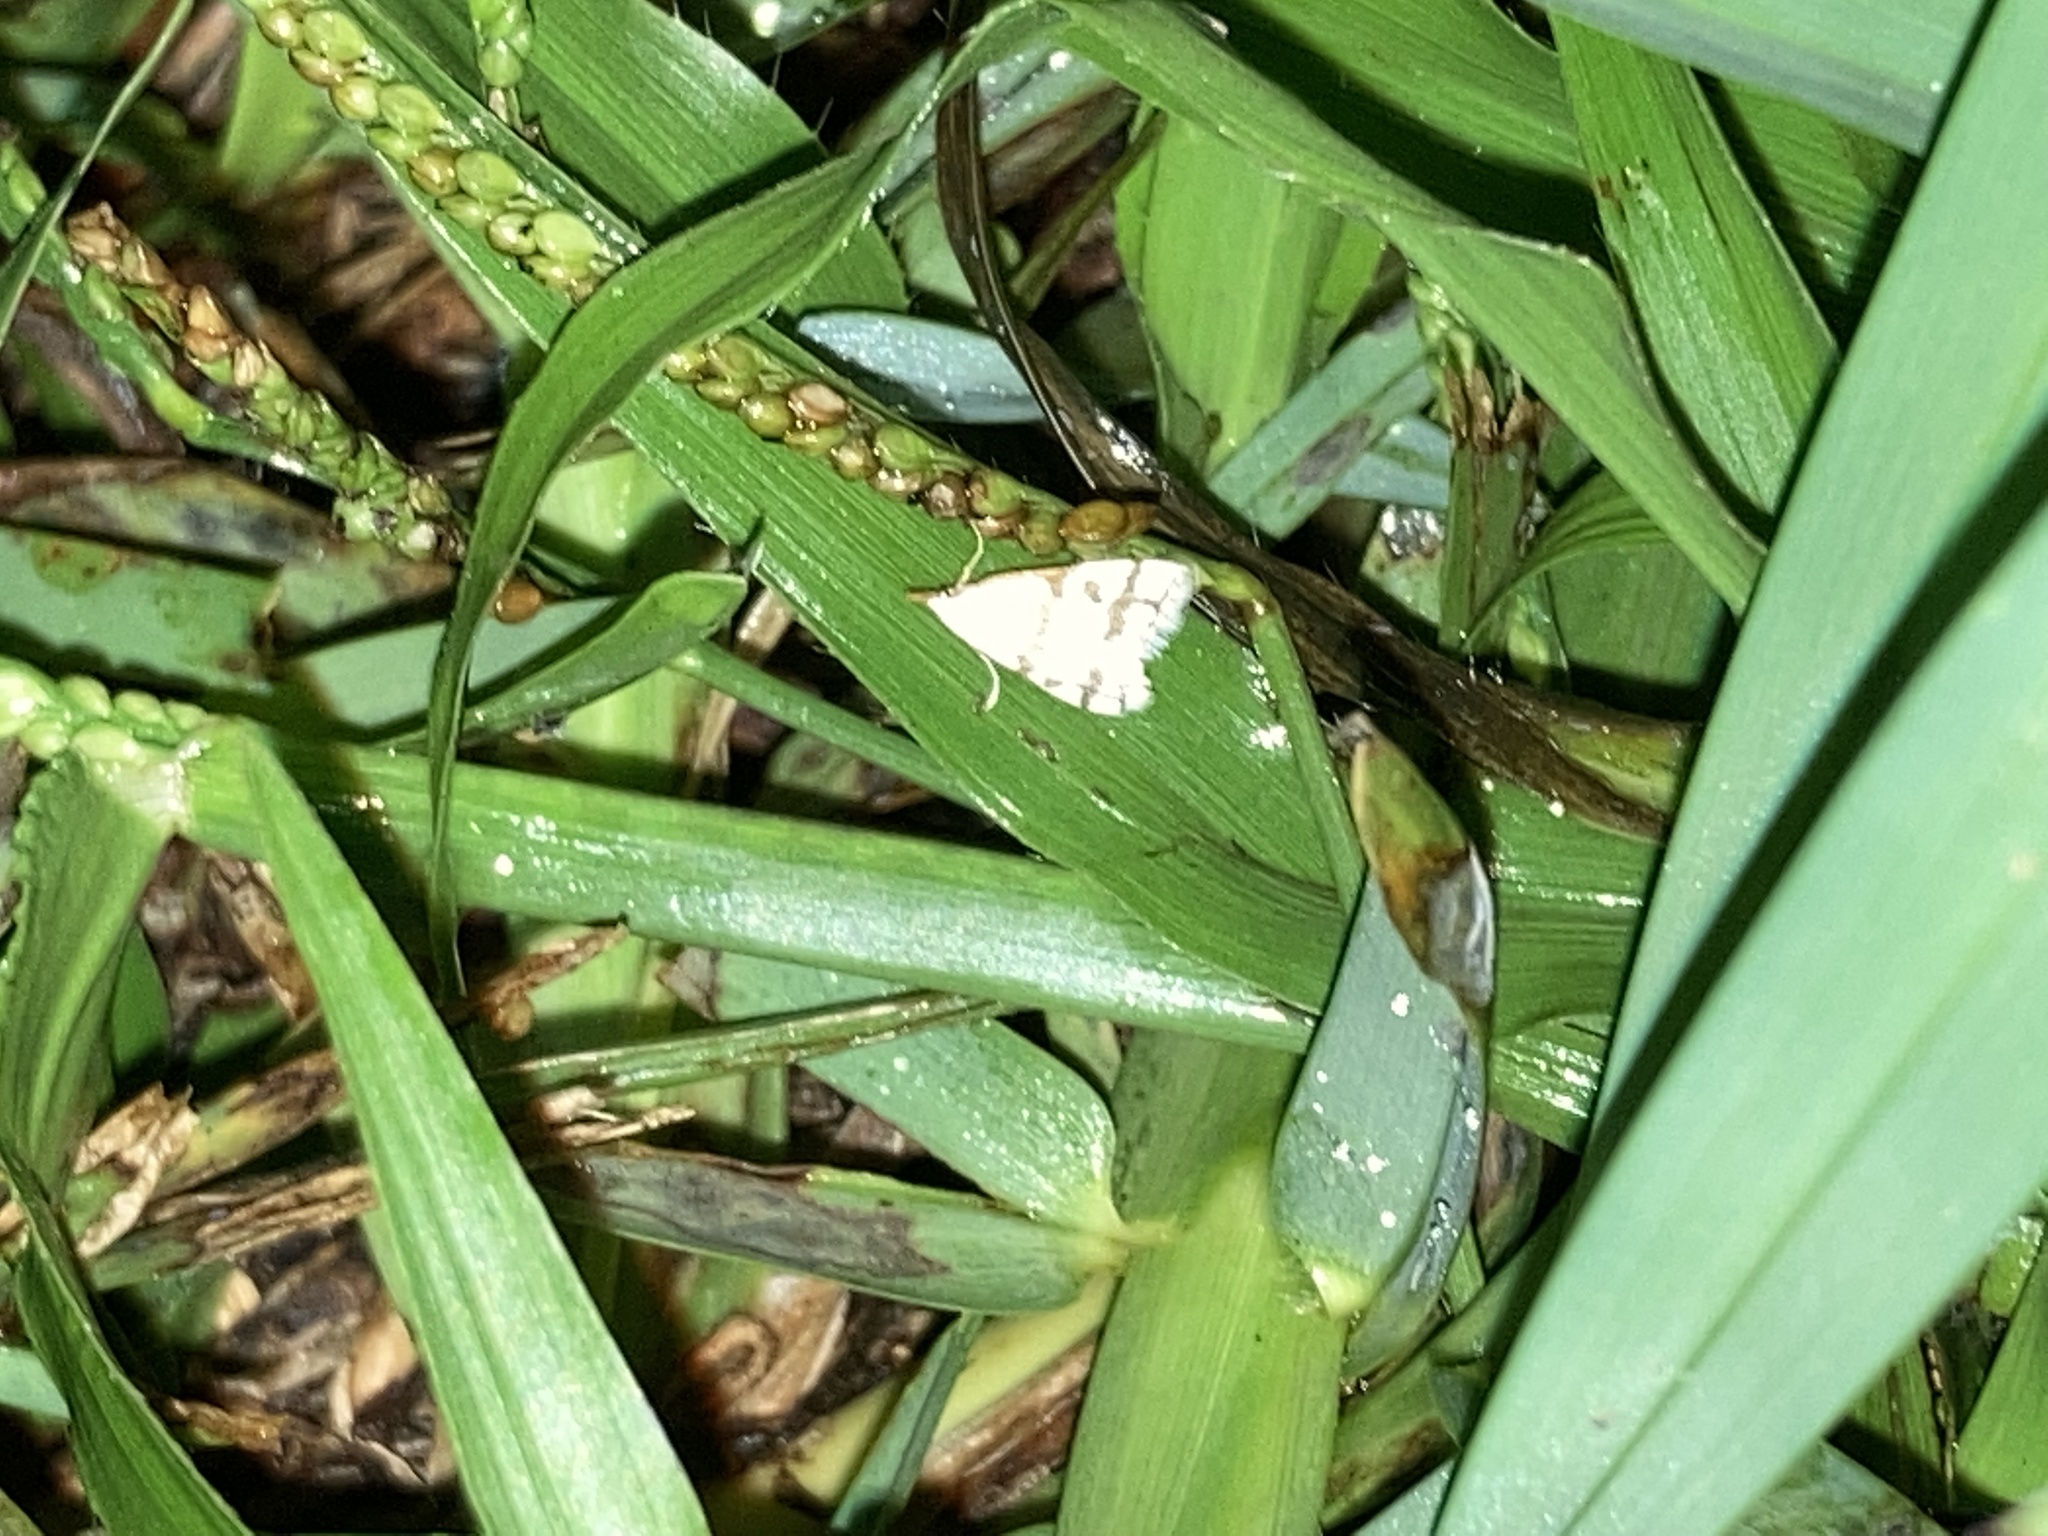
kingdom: Animalia
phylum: Arthropoda
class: Insecta
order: Lepidoptera
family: Crambidae
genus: Leptosteges
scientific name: Leptosteges
